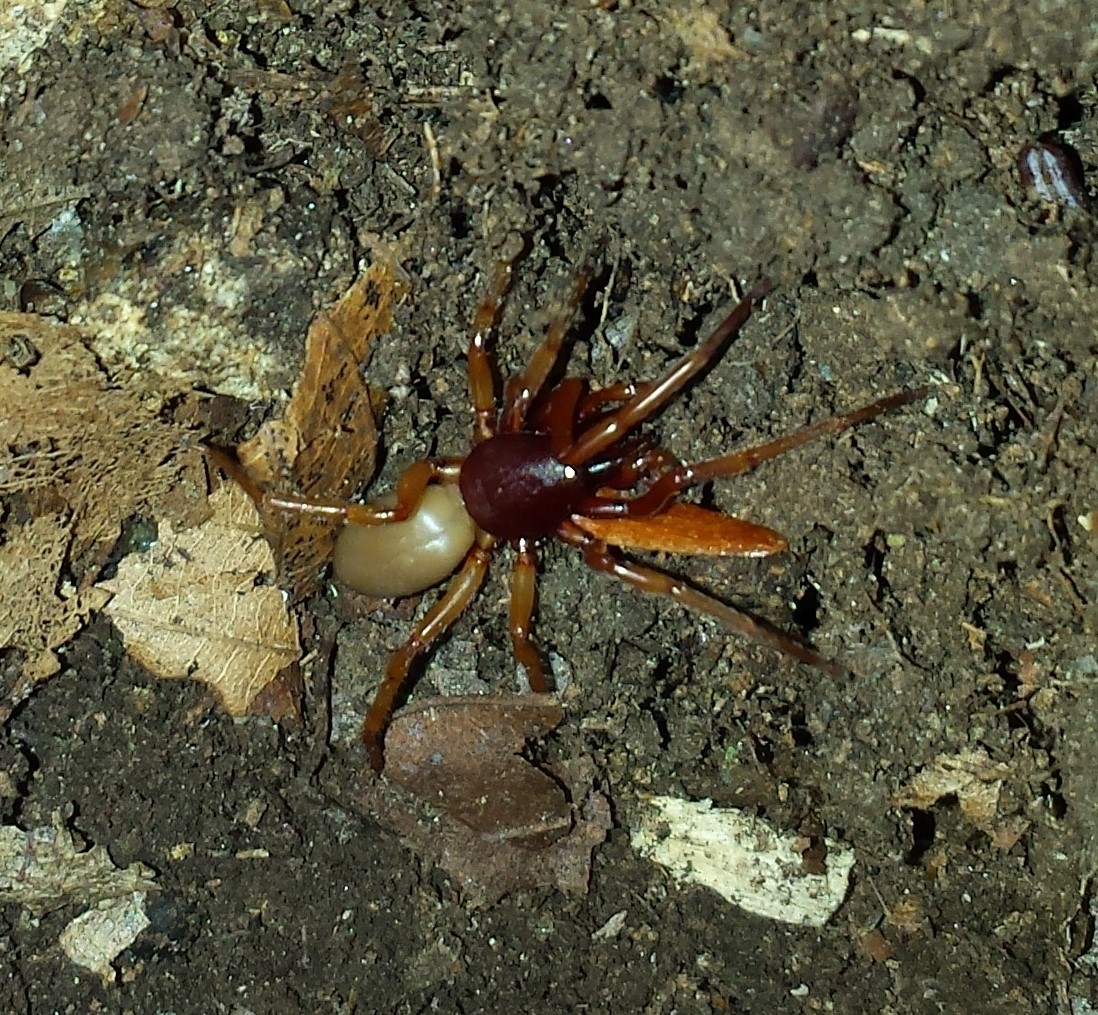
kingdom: Animalia
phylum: Arthropoda
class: Arachnida
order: Araneae
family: Dysderidae
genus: Dysdera
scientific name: Dysdera crocata
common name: Woodlouse spider
